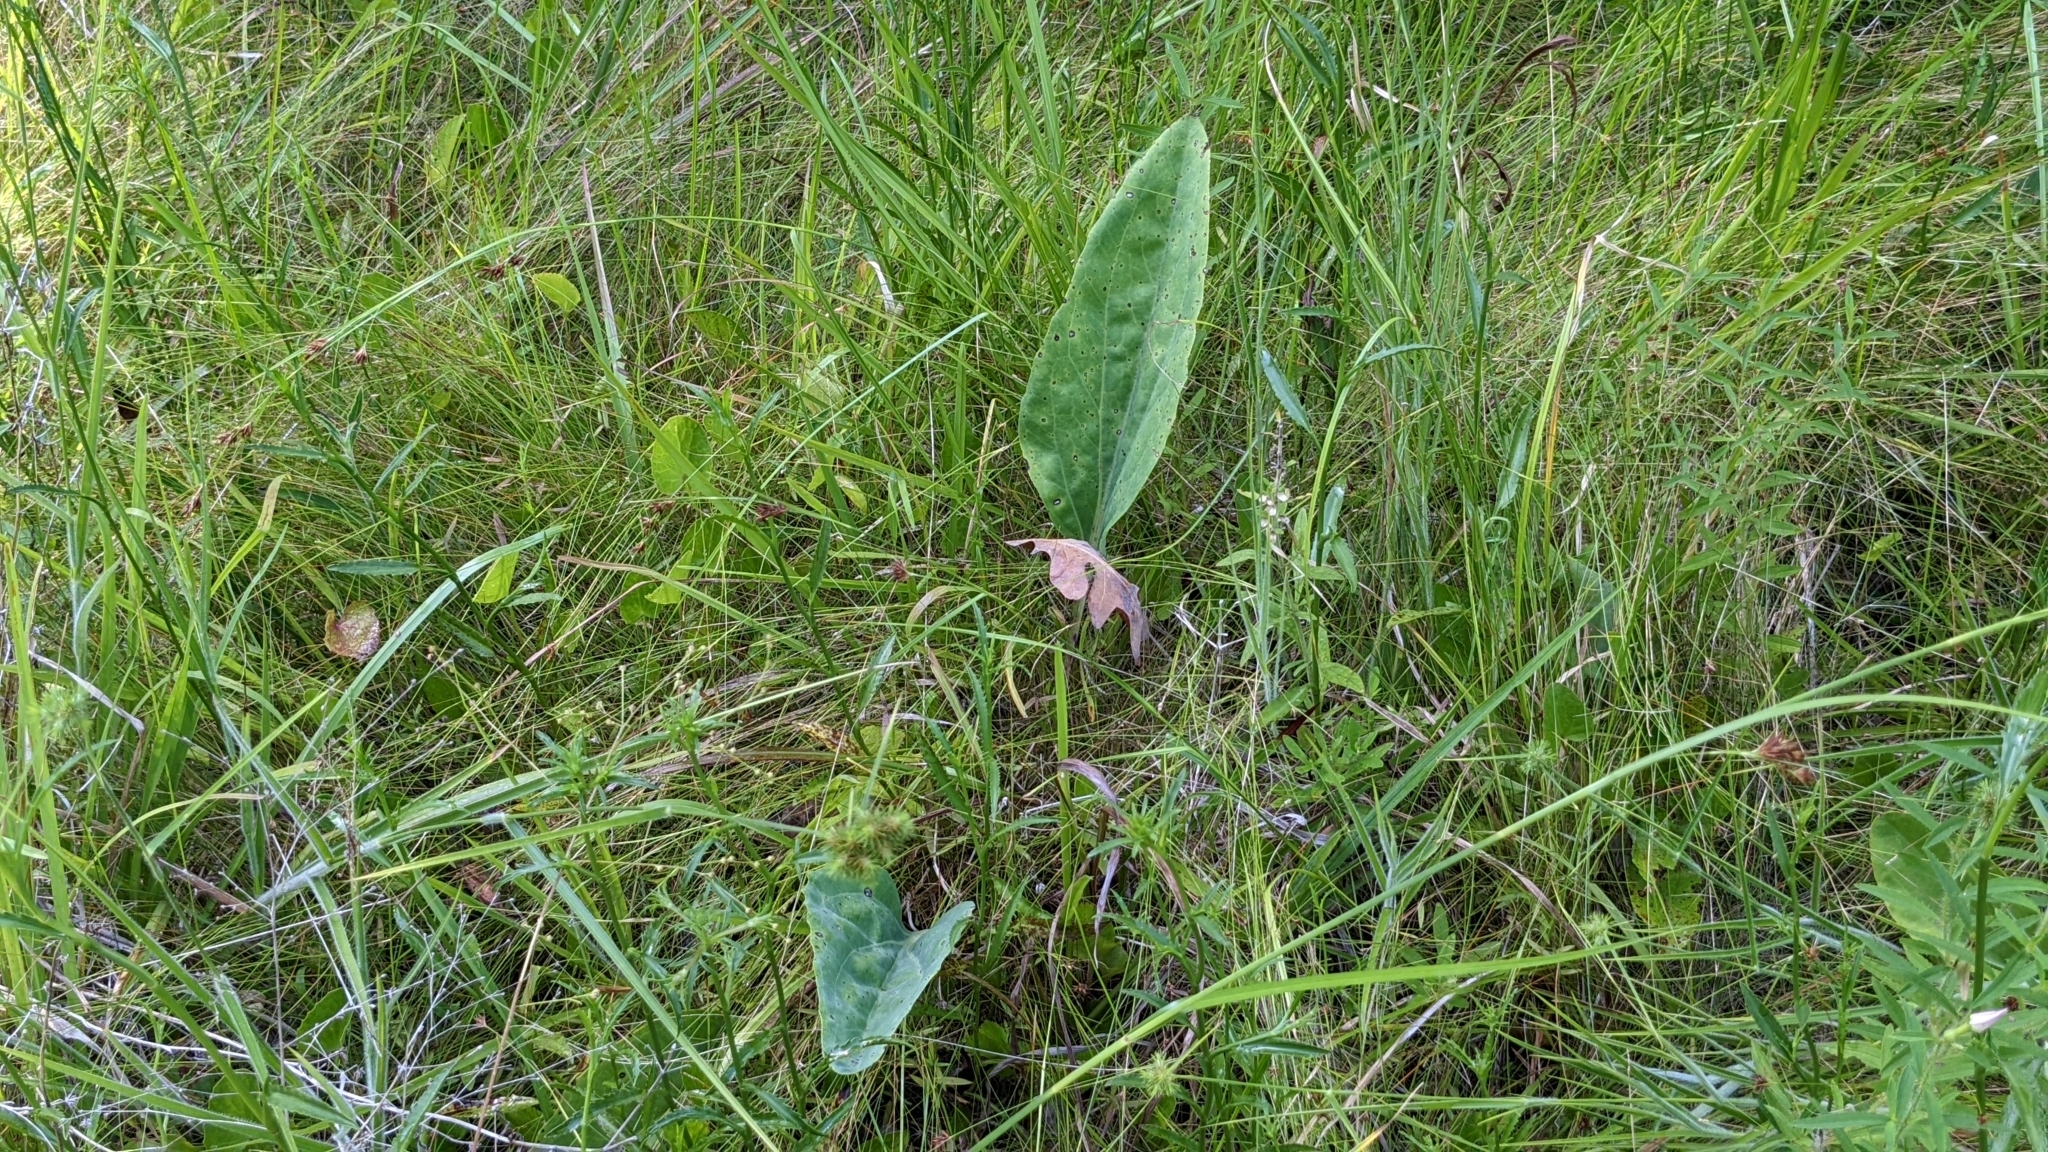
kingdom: Plantae
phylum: Tracheophyta
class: Magnoliopsida
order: Asterales
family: Asteraceae
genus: Arnoglossum
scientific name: Arnoglossum ovatum
